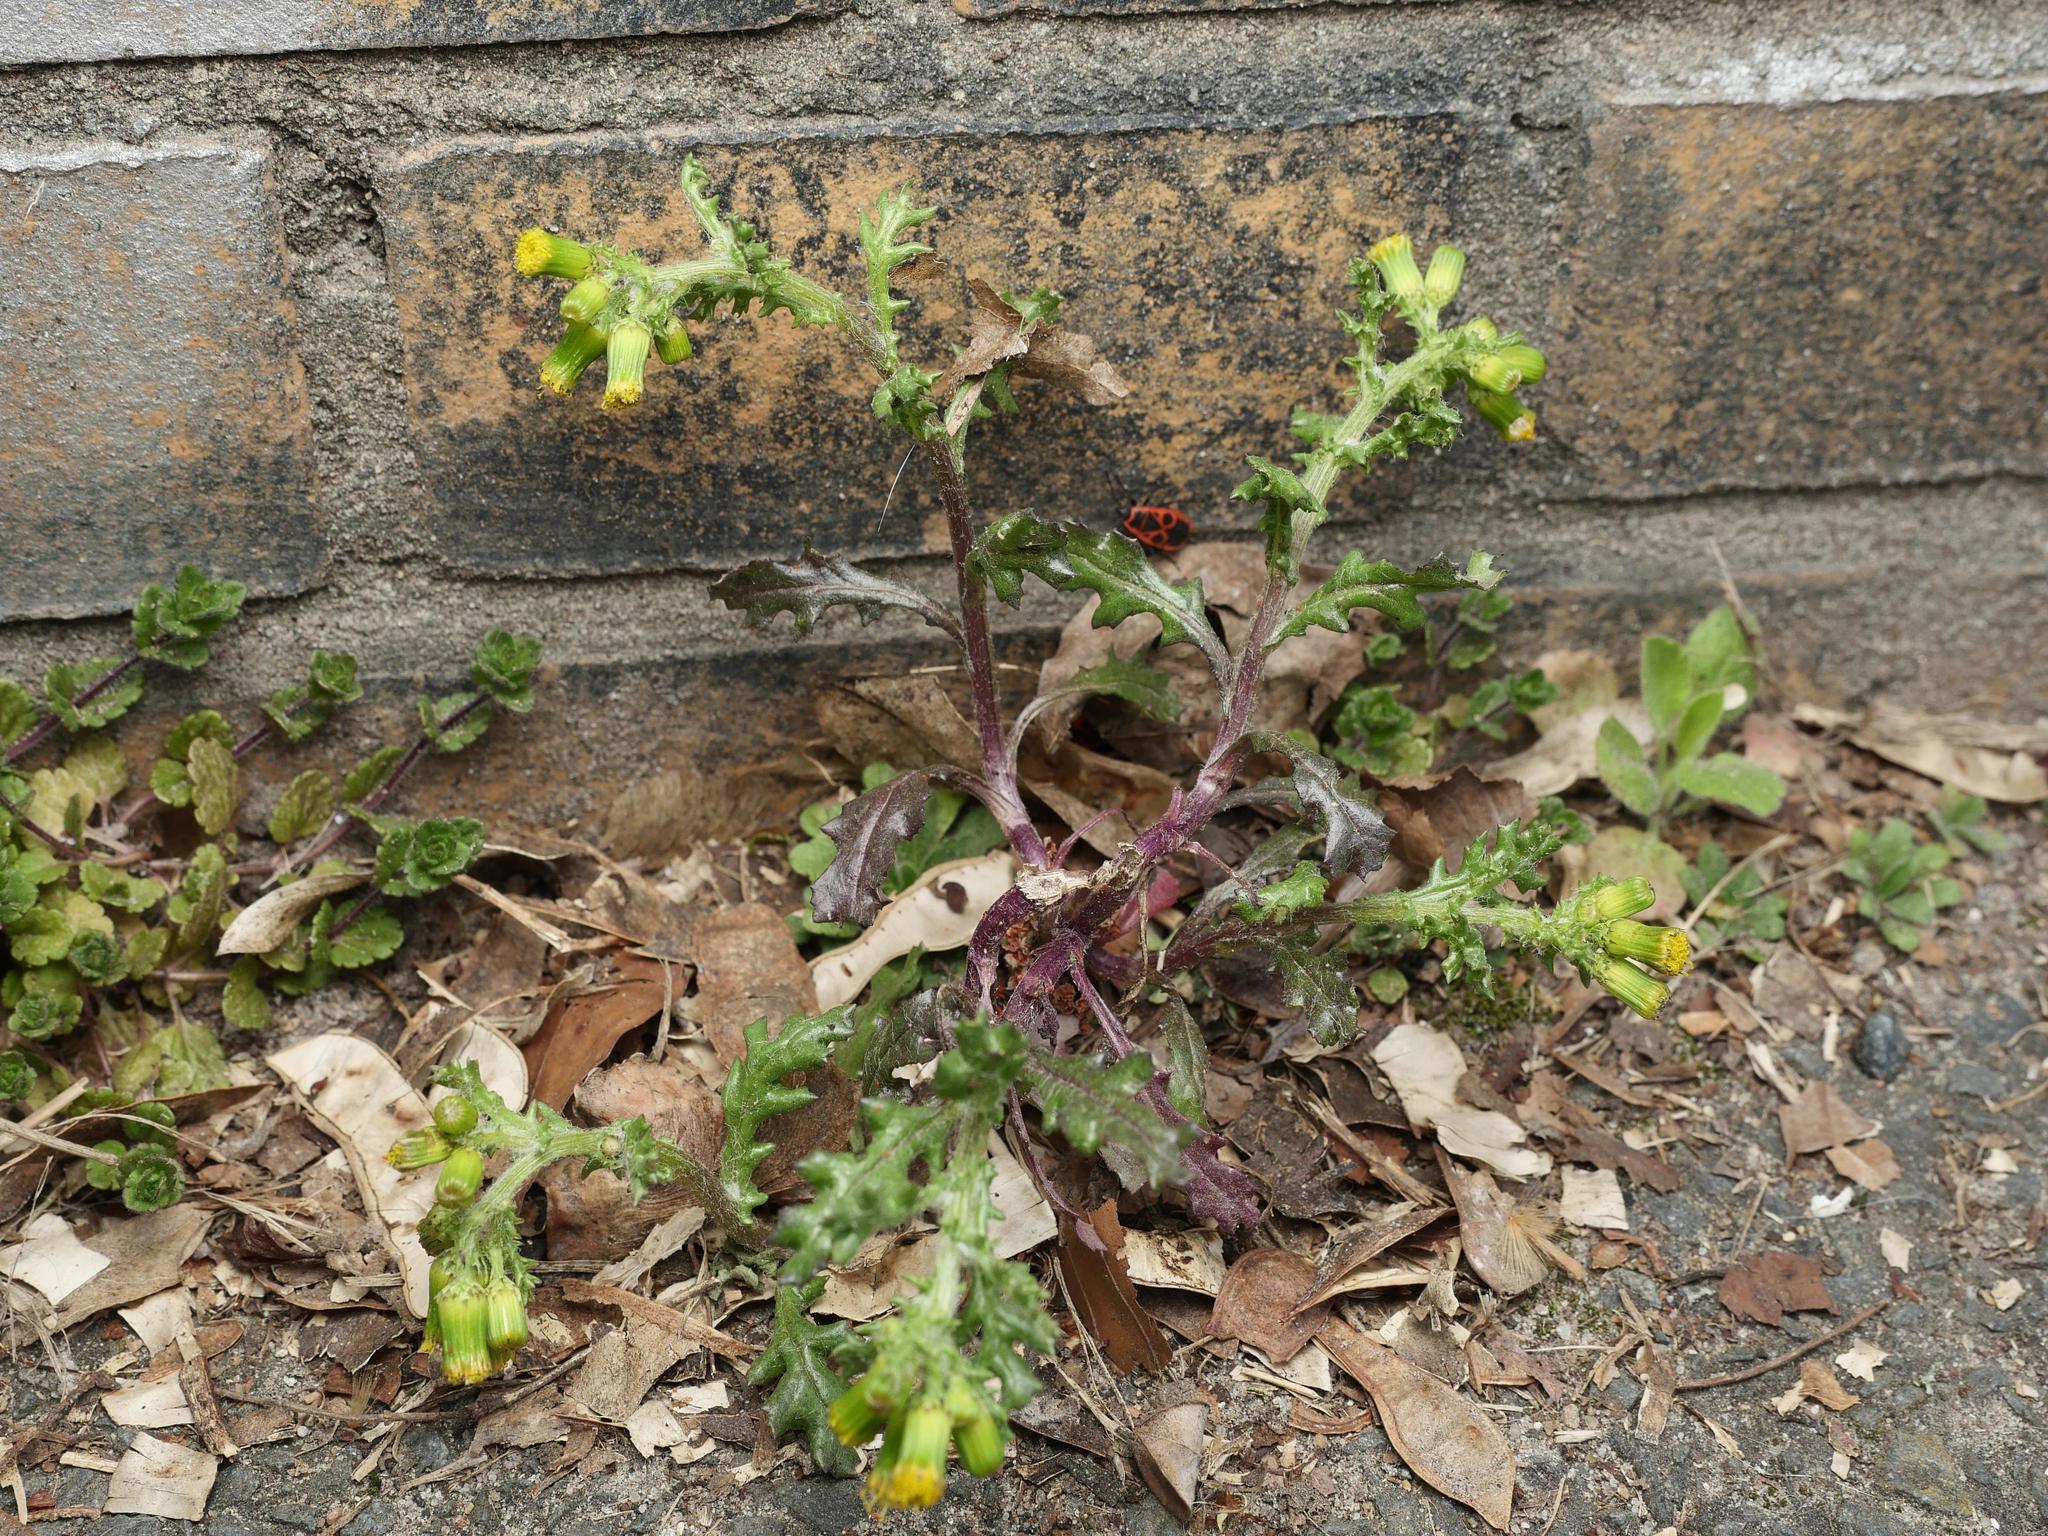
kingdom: Plantae
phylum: Tracheophyta
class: Magnoliopsida
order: Asterales
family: Asteraceae
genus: Senecio
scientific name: Senecio vulgaris
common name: Old-man-in-the-spring
